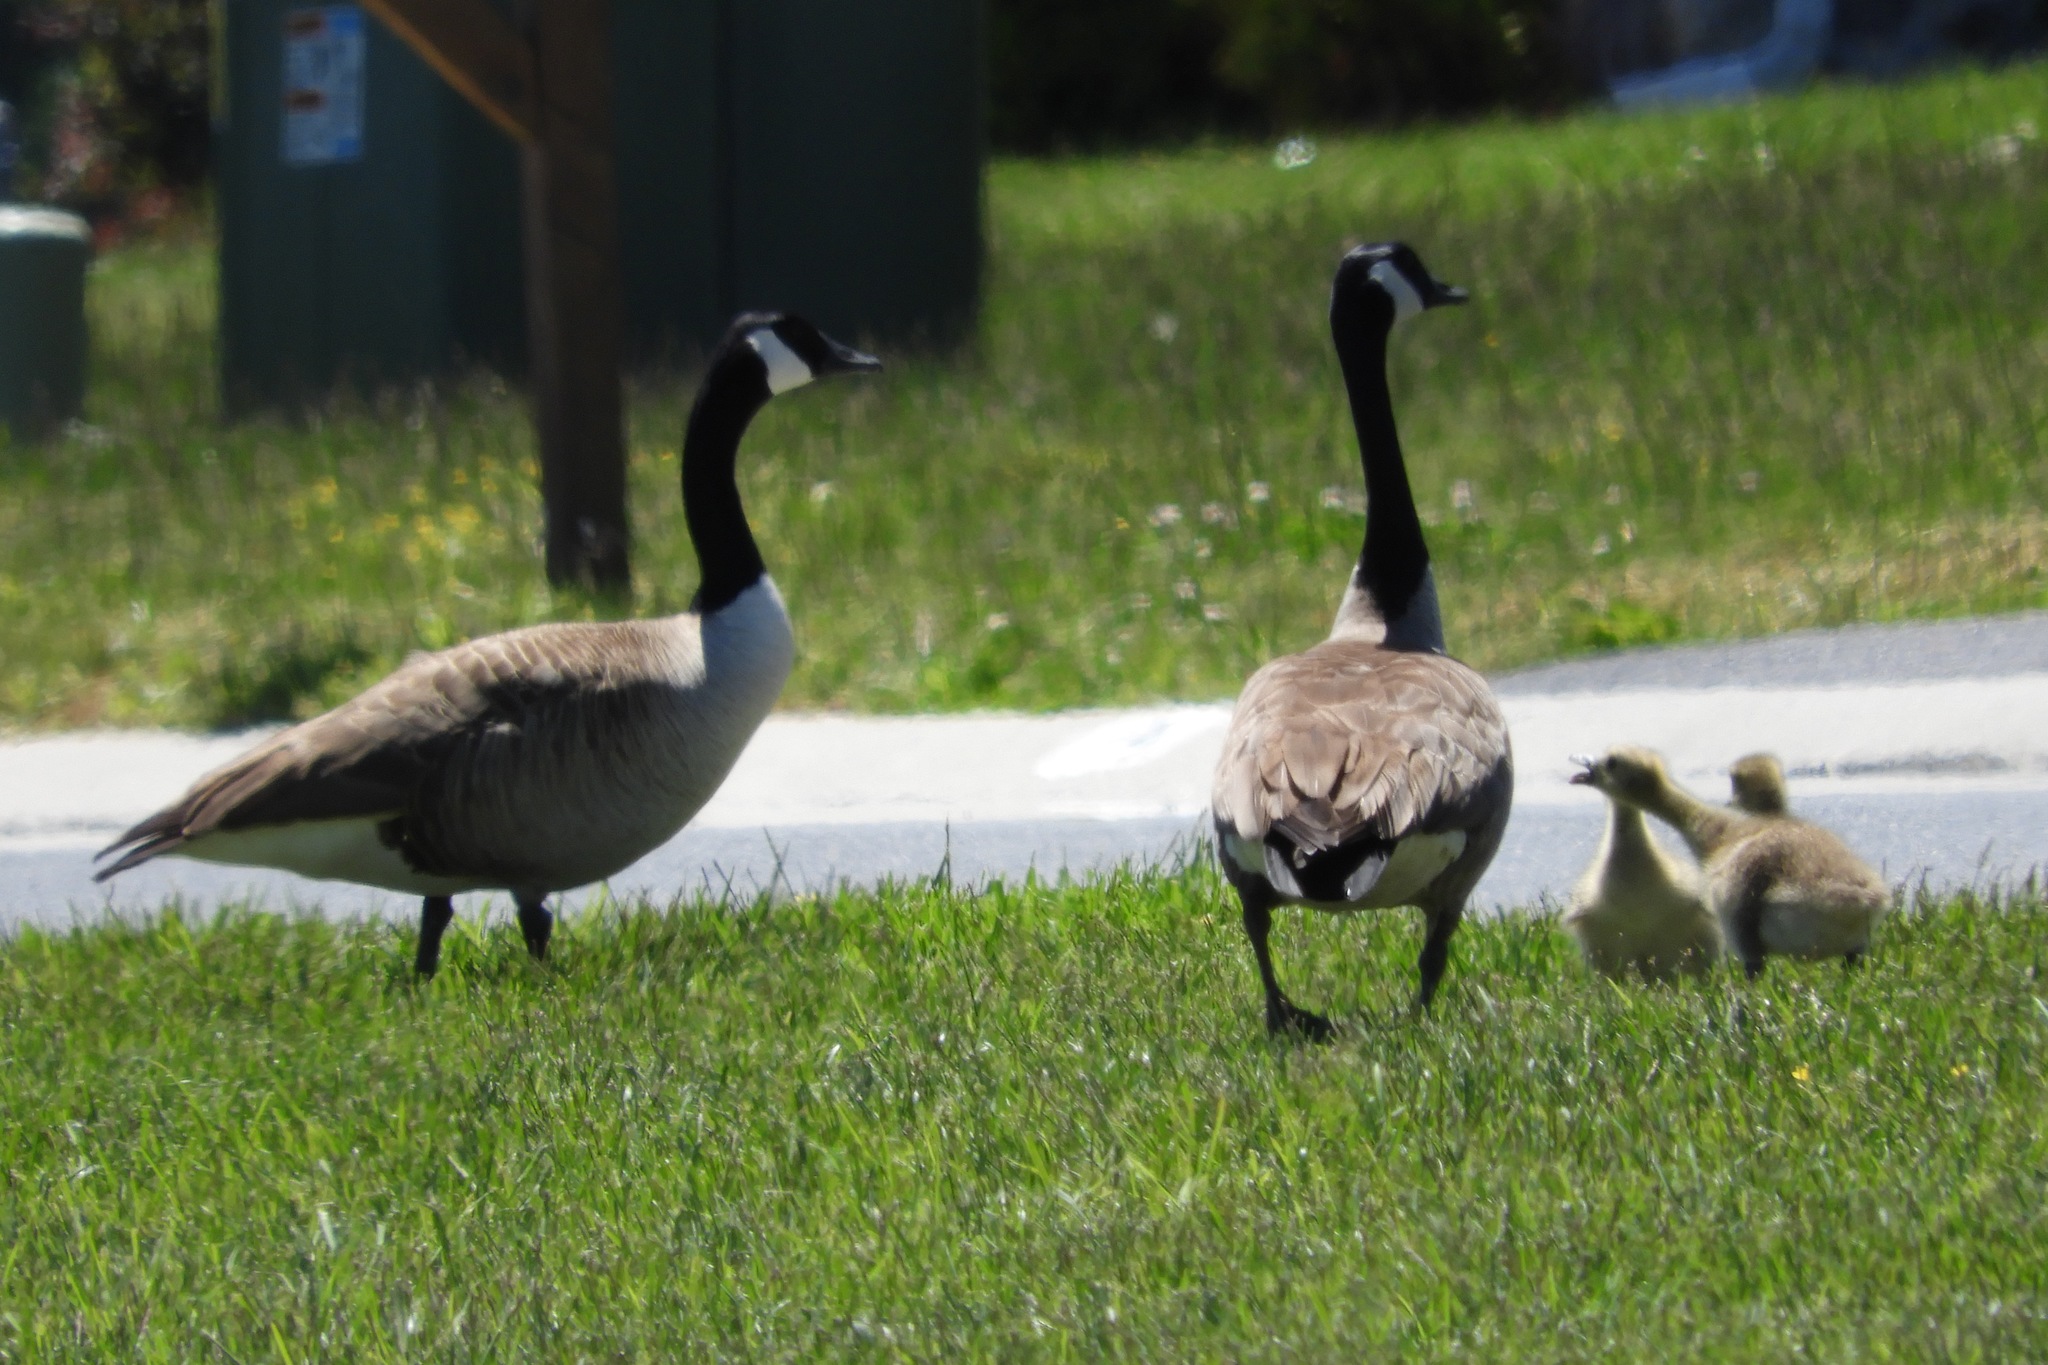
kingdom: Animalia
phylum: Chordata
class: Aves
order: Anseriformes
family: Anatidae
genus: Branta
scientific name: Branta canadensis
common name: Canada goose
